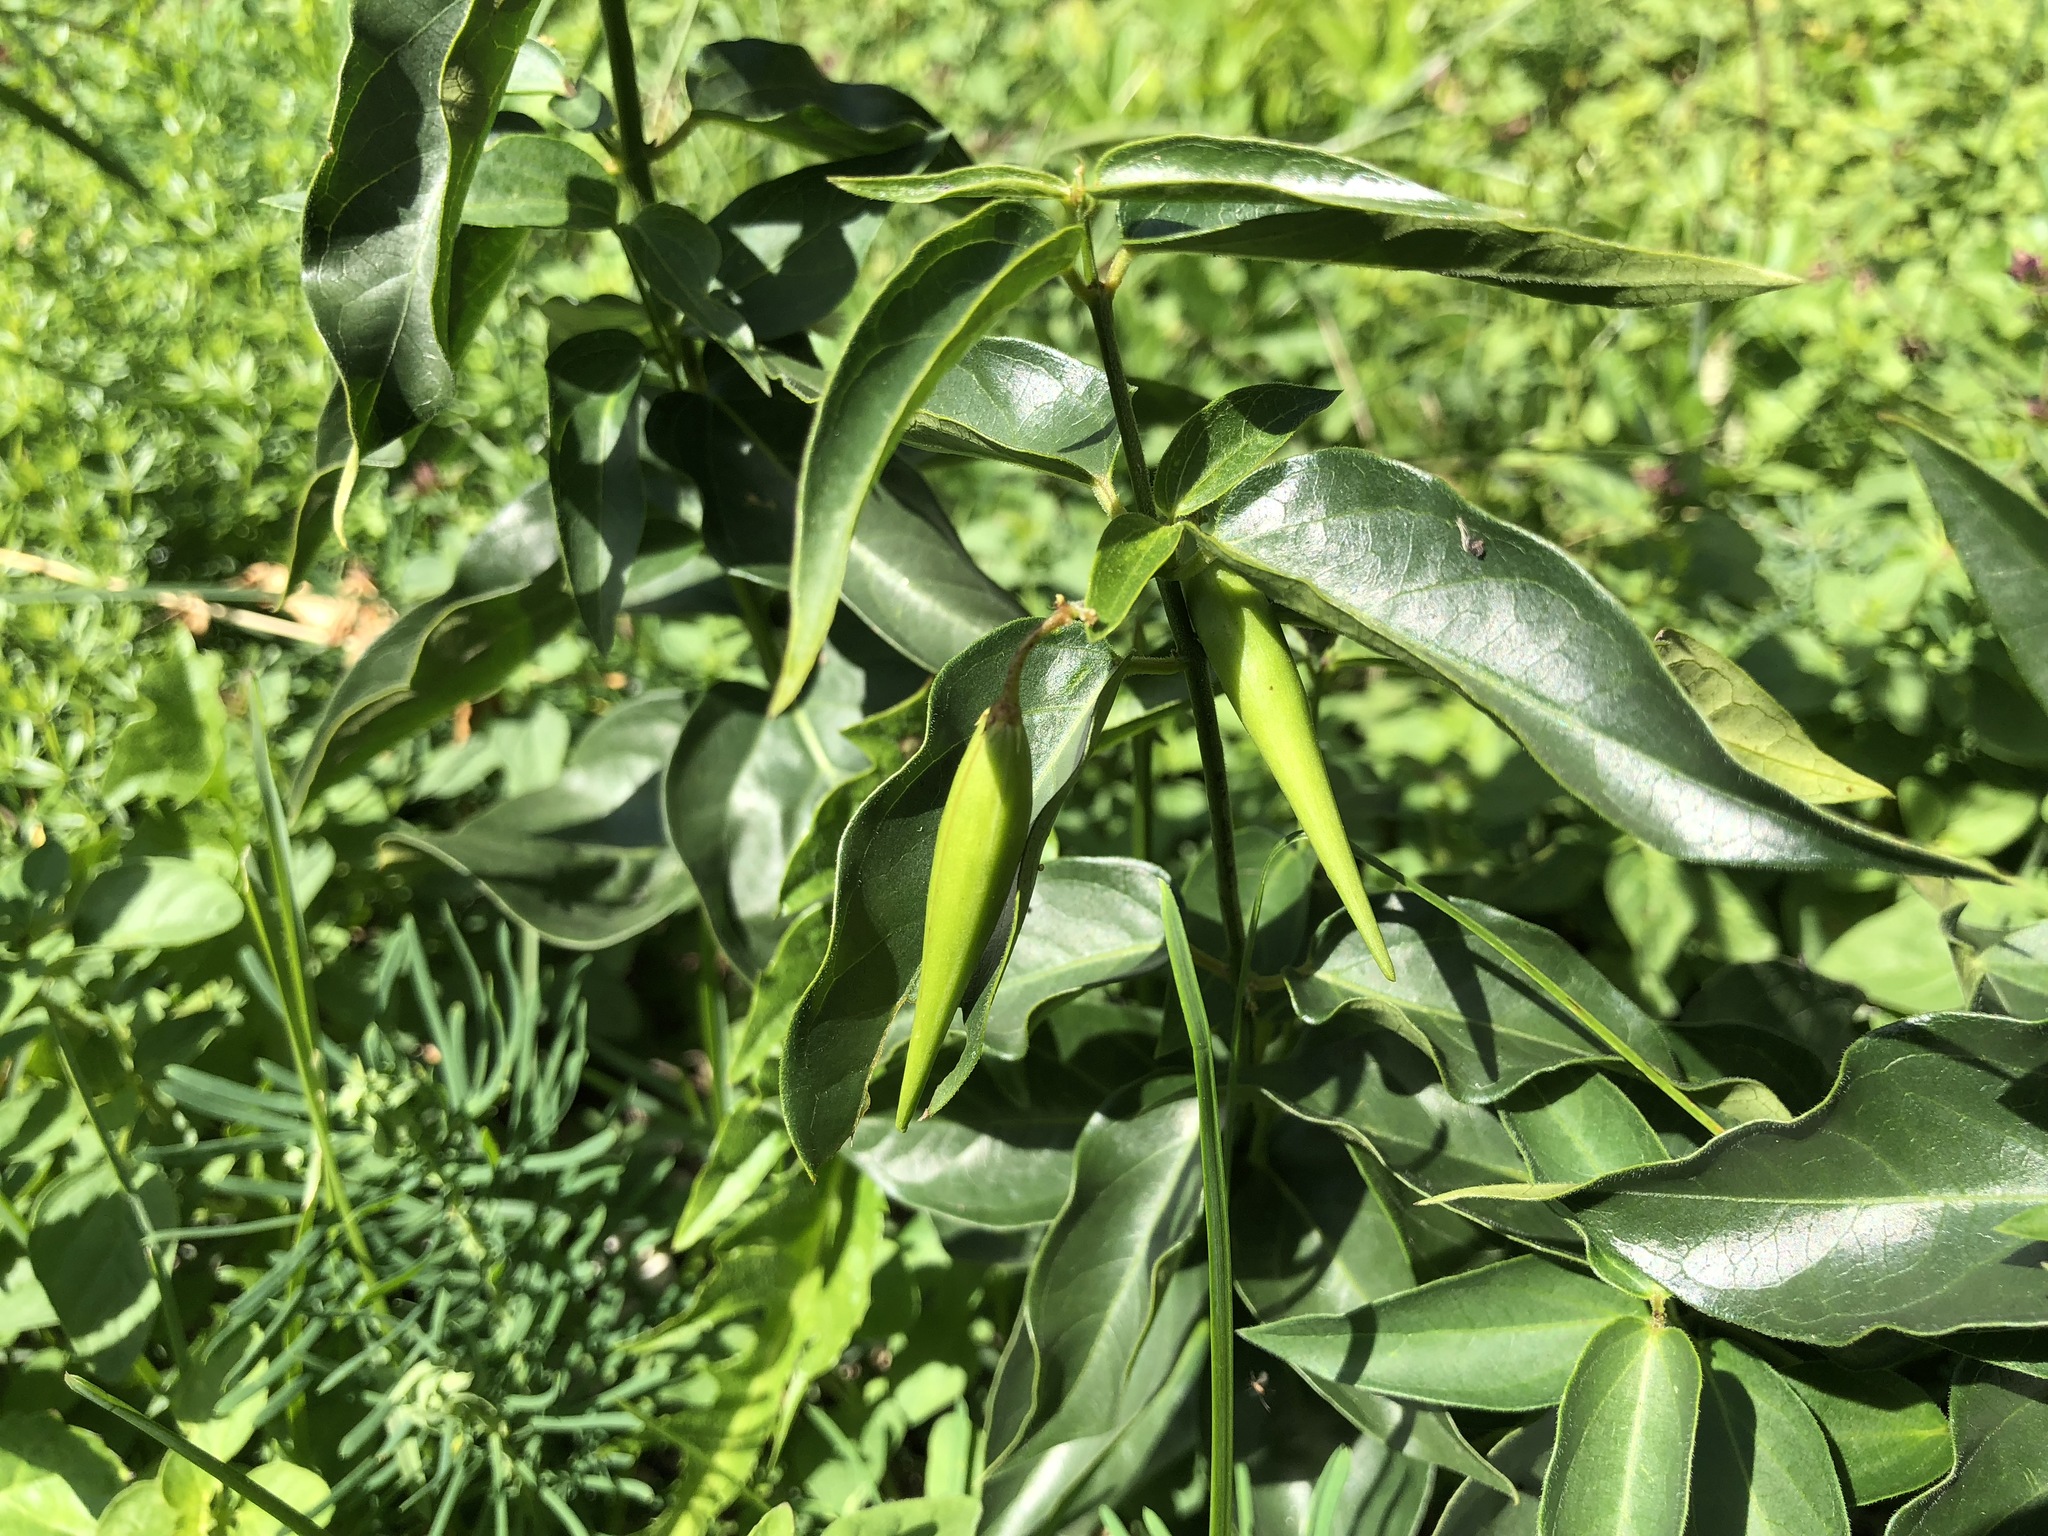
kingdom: Plantae
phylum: Tracheophyta
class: Magnoliopsida
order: Gentianales
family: Apocynaceae
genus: Vincetoxicum
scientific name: Vincetoxicum hirundinaria
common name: White swallowwort
